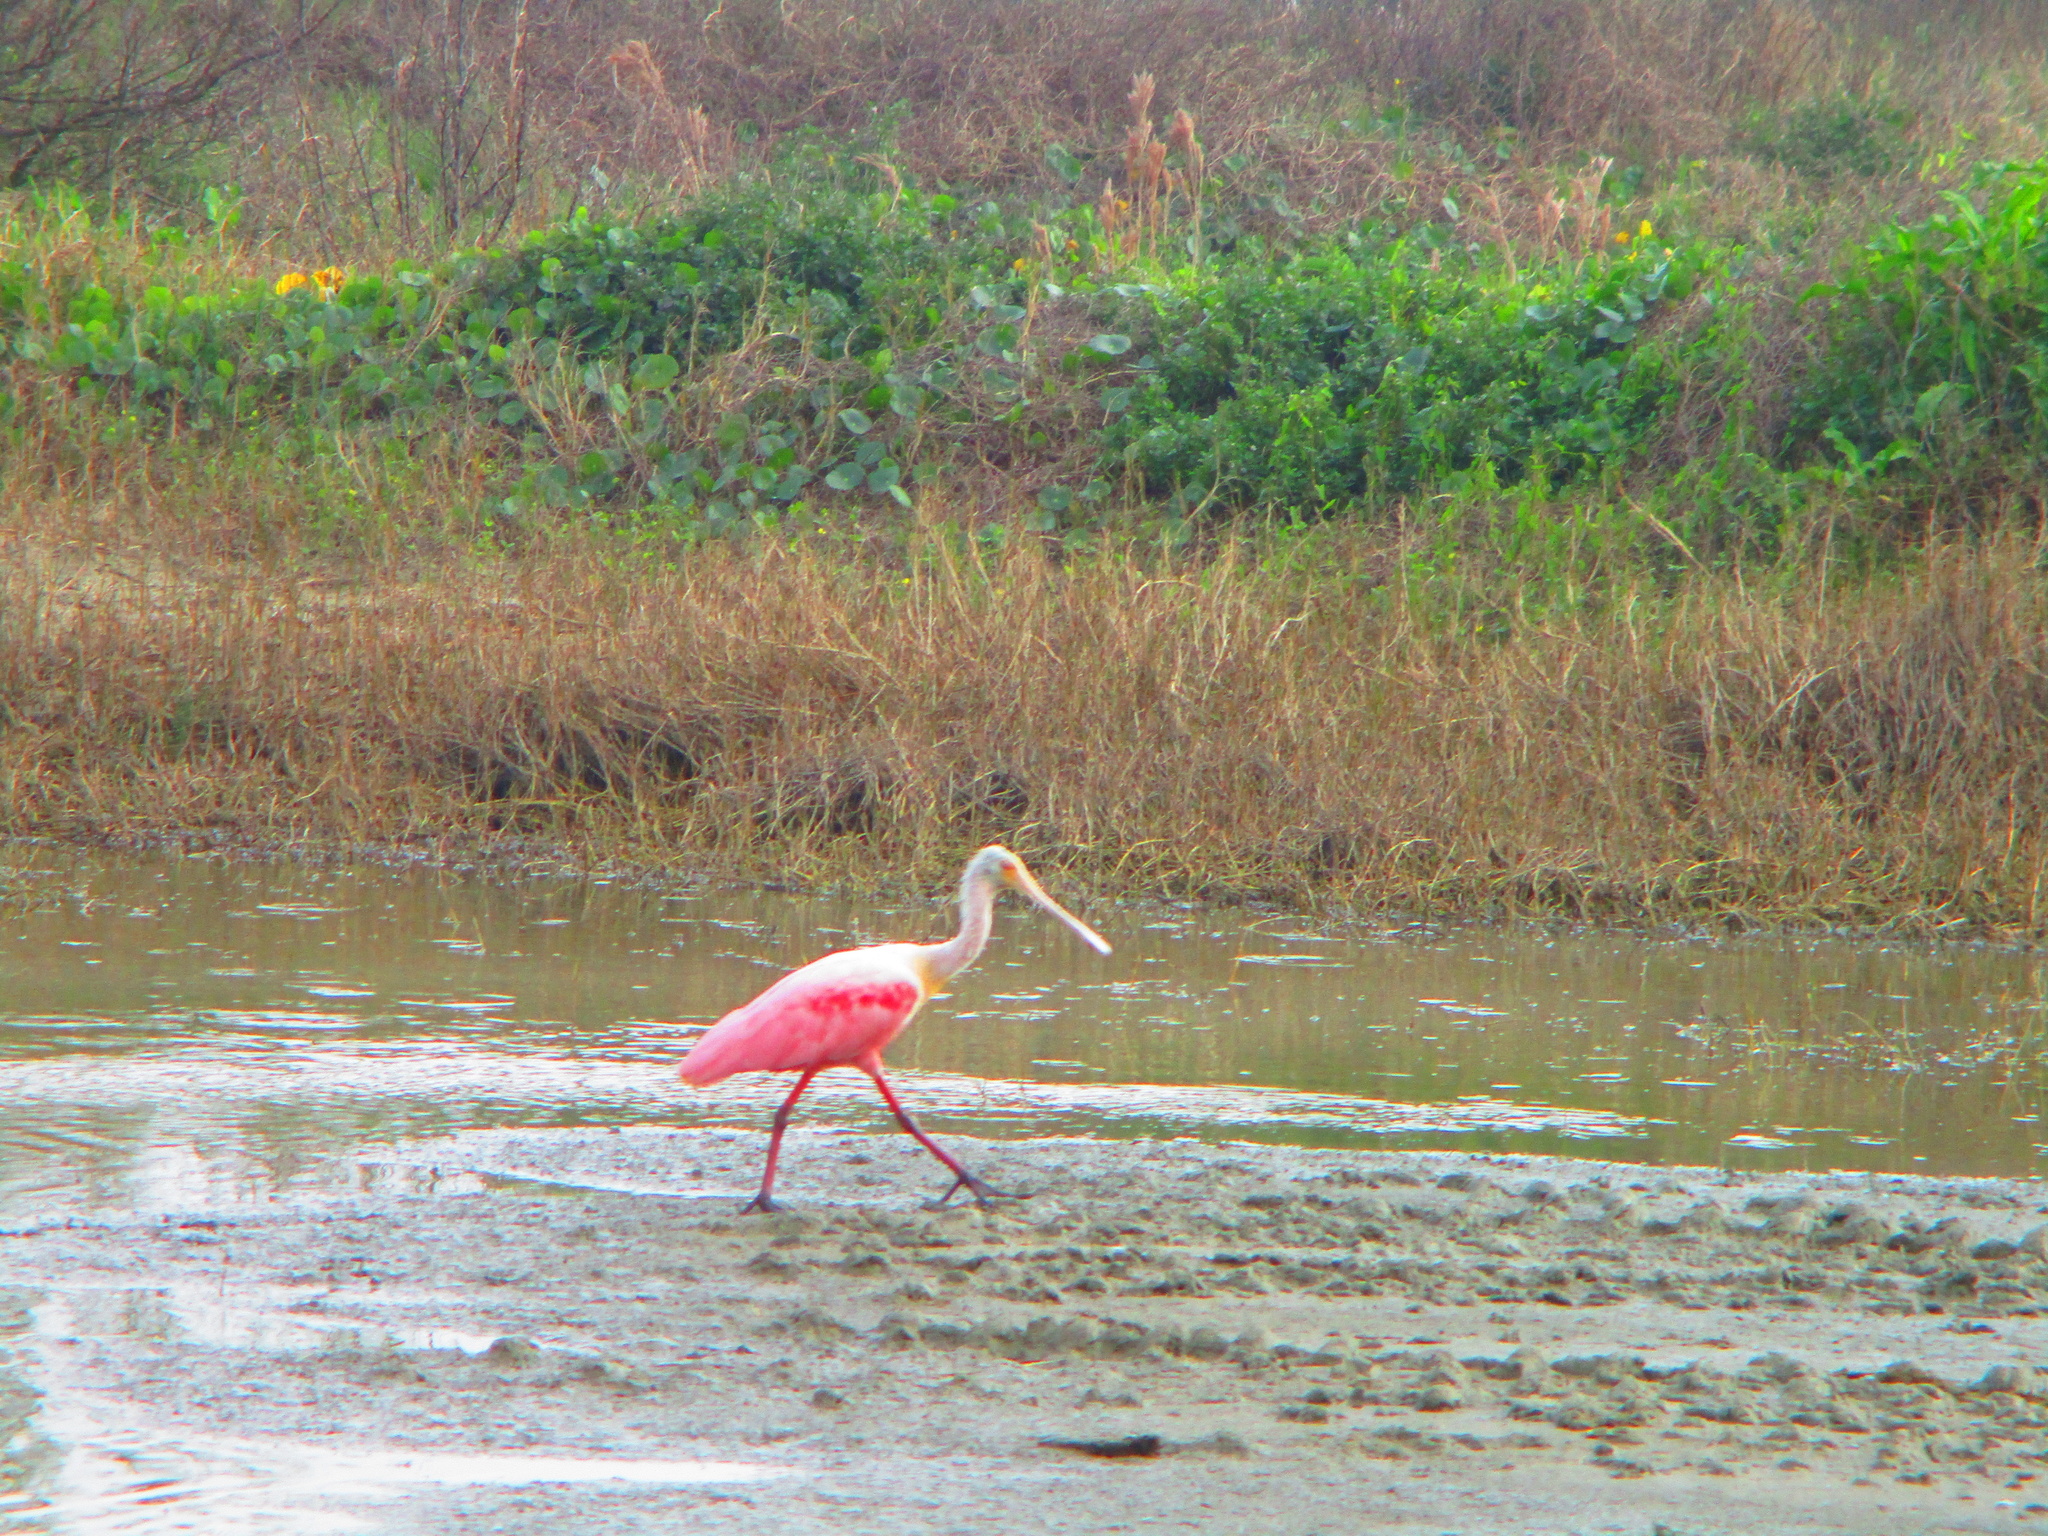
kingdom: Animalia
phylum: Chordata
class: Aves
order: Pelecaniformes
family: Threskiornithidae
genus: Platalea
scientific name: Platalea ajaja
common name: Roseate spoonbill
